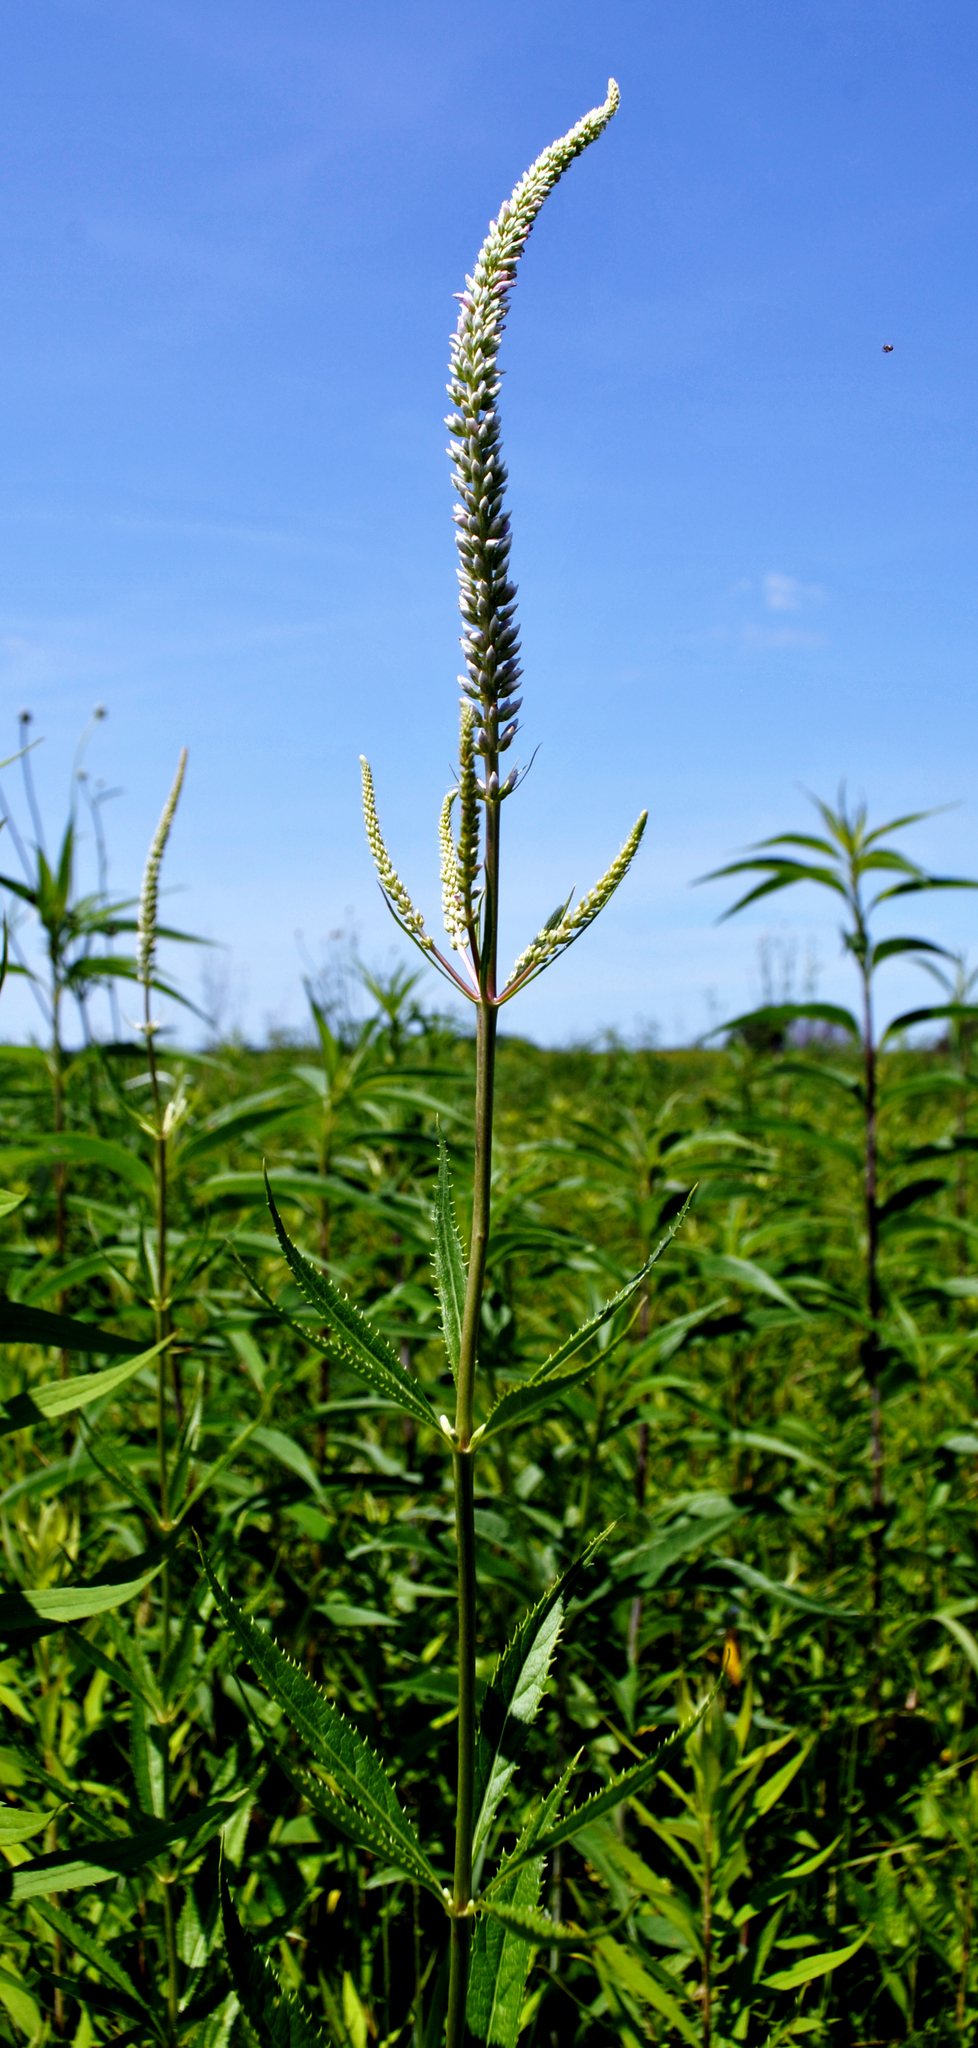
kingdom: Plantae
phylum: Tracheophyta
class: Magnoliopsida
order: Lamiales
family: Plantaginaceae
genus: Veronicastrum
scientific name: Veronicastrum virginicum
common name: Blackroot
